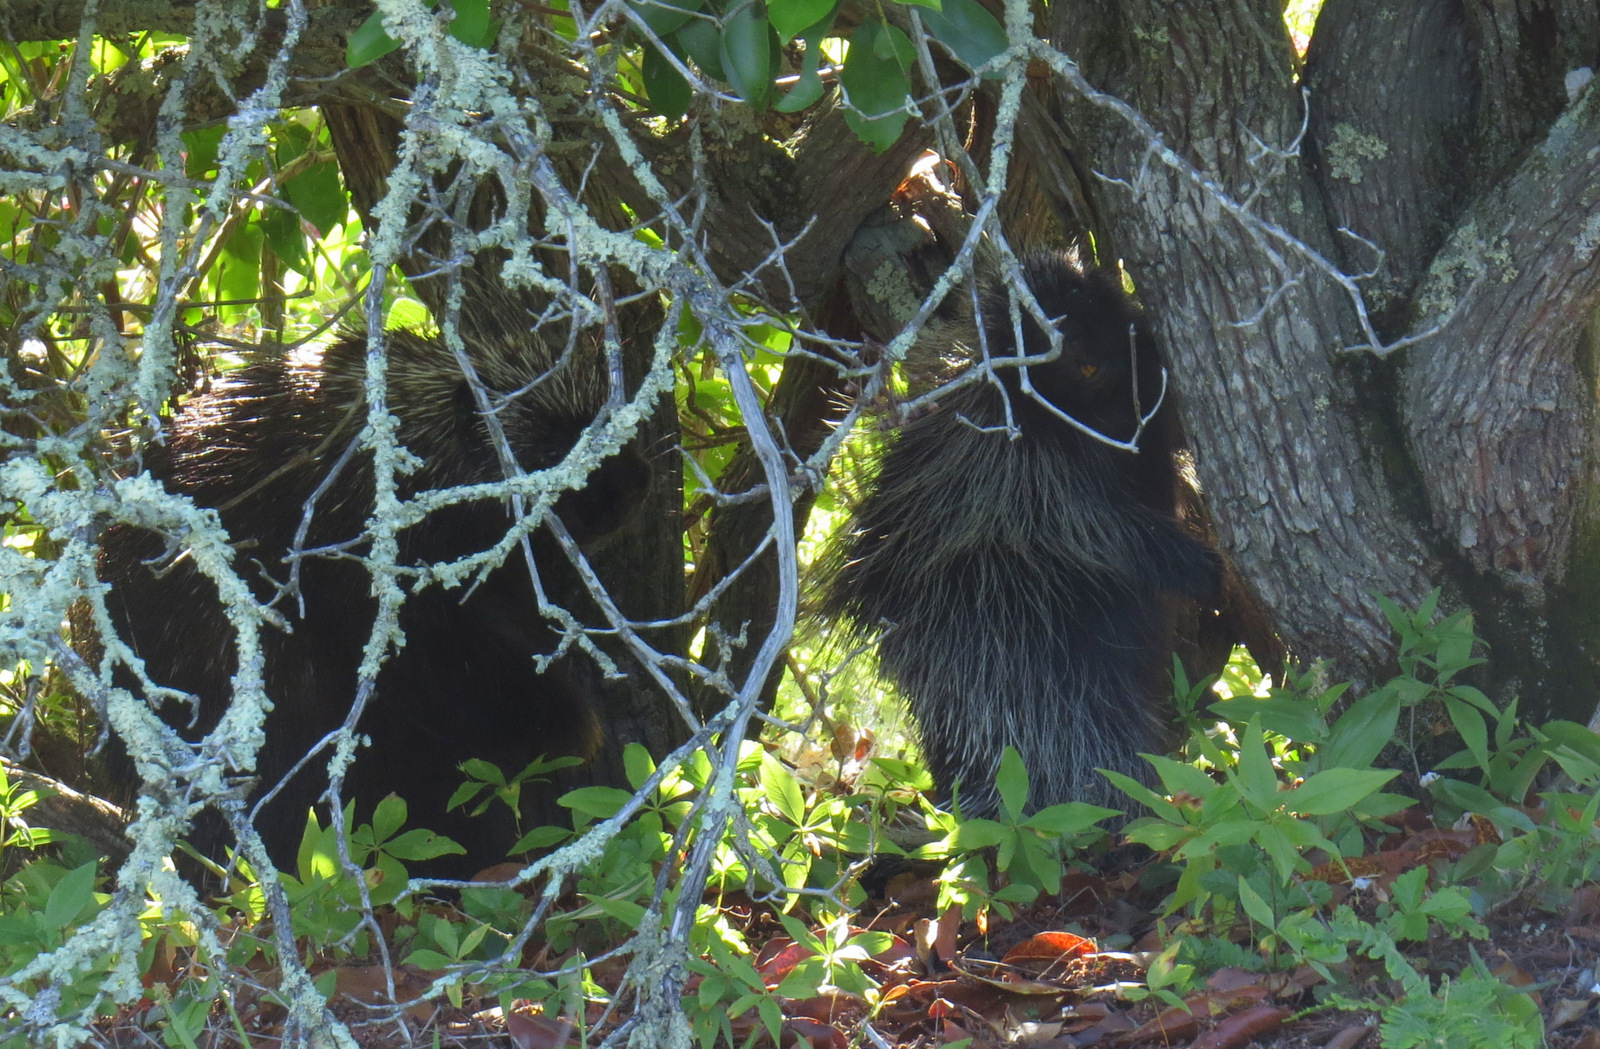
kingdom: Animalia
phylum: Chordata
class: Mammalia
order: Rodentia
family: Erethizontidae
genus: Erethizon
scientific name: Erethizon dorsatus
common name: North american porcupine
